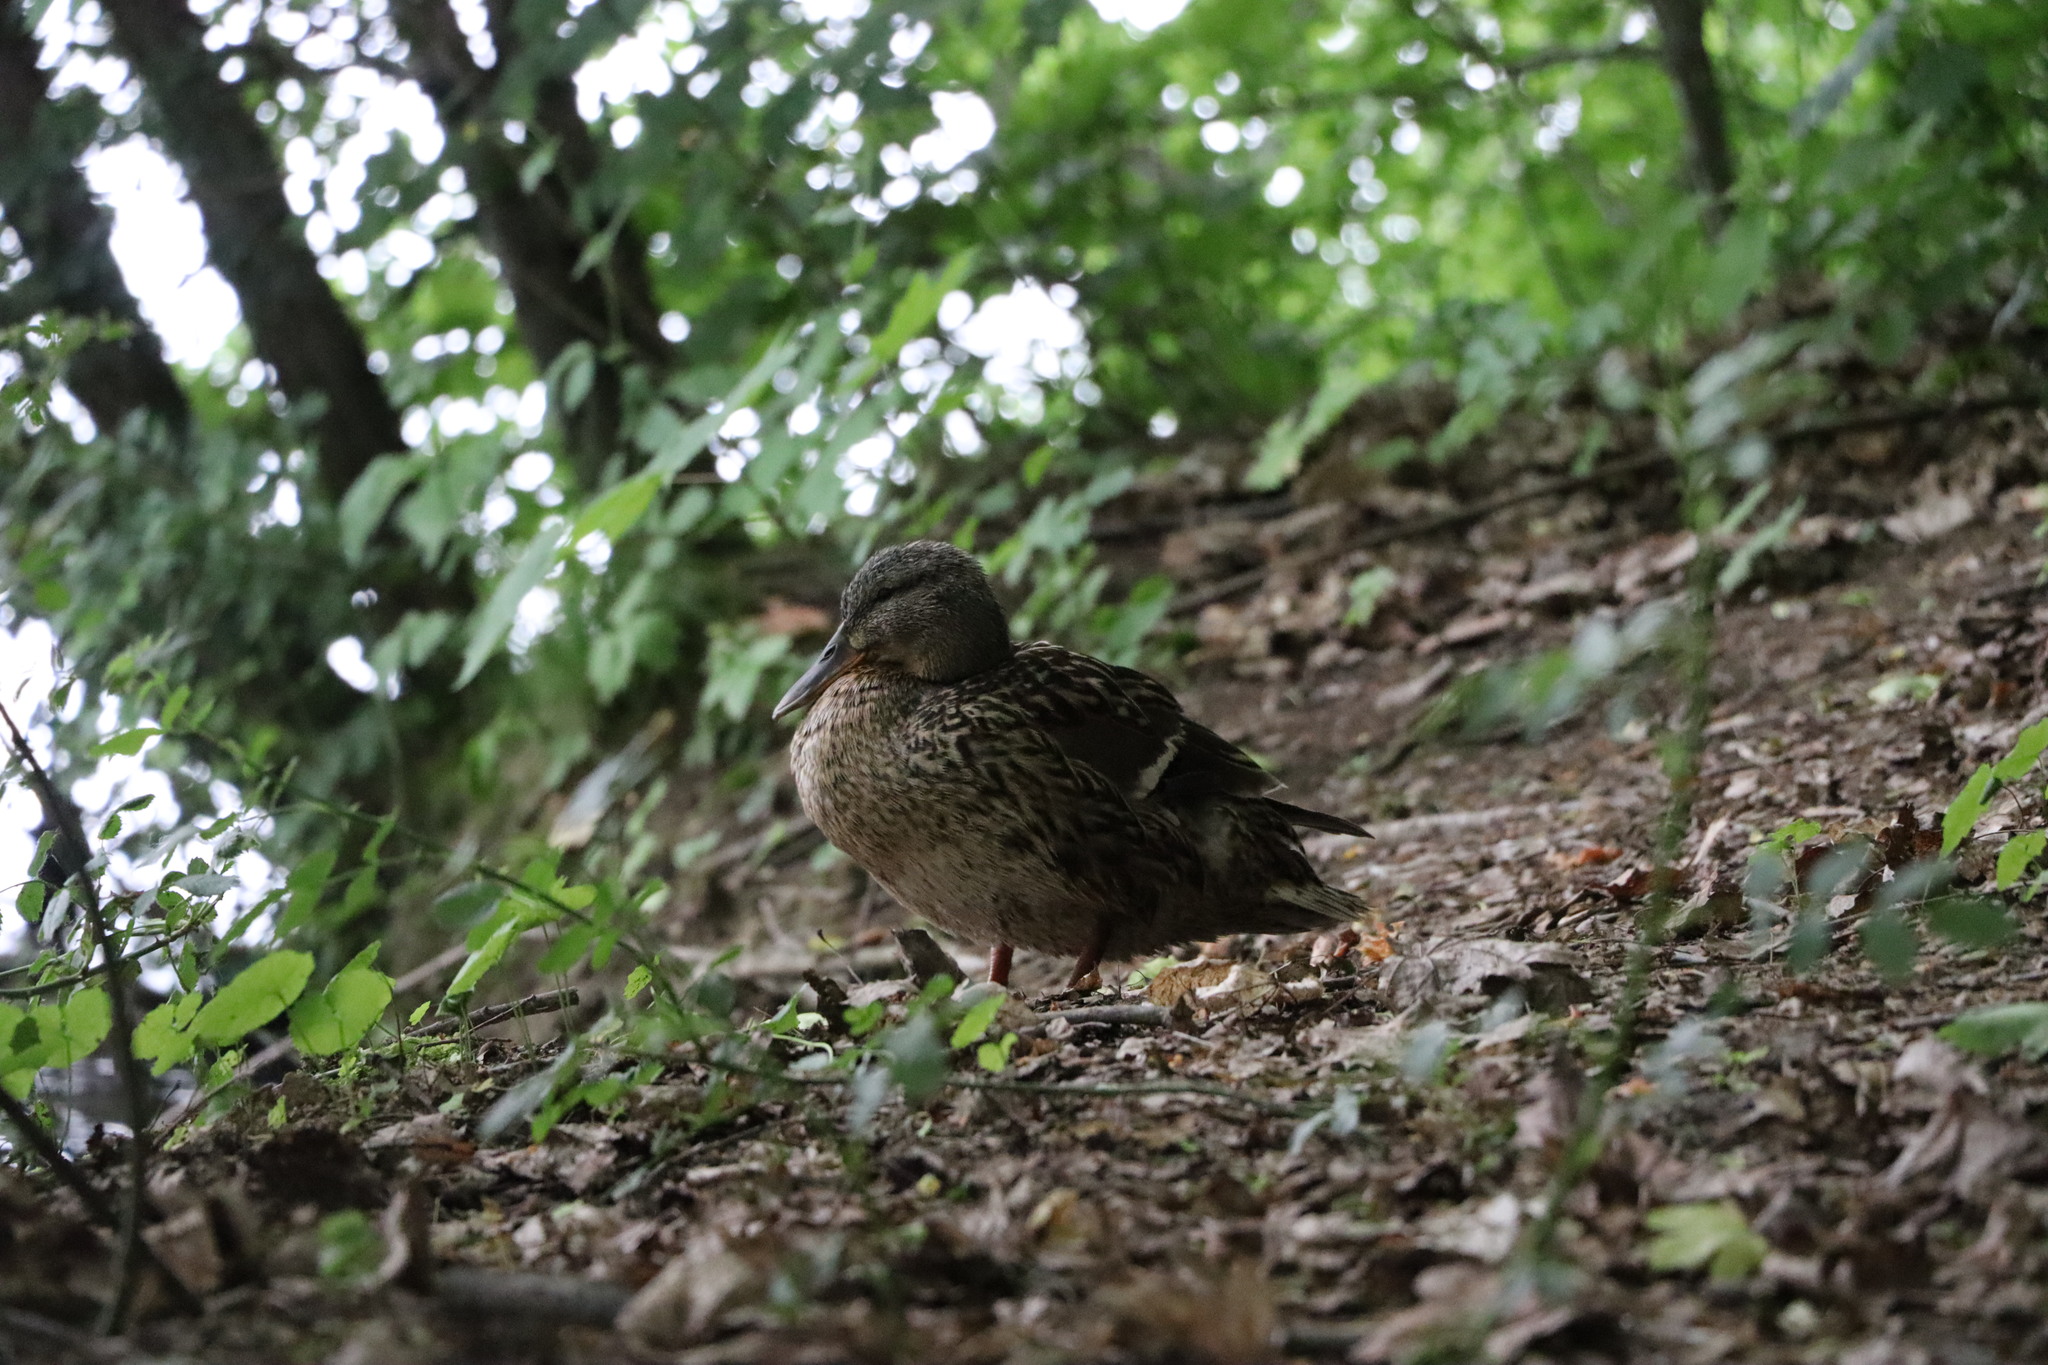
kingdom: Animalia
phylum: Chordata
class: Aves
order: Anseriformes
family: Anatidae
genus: Anas
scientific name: Anas platyrhynchos
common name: Mallard
